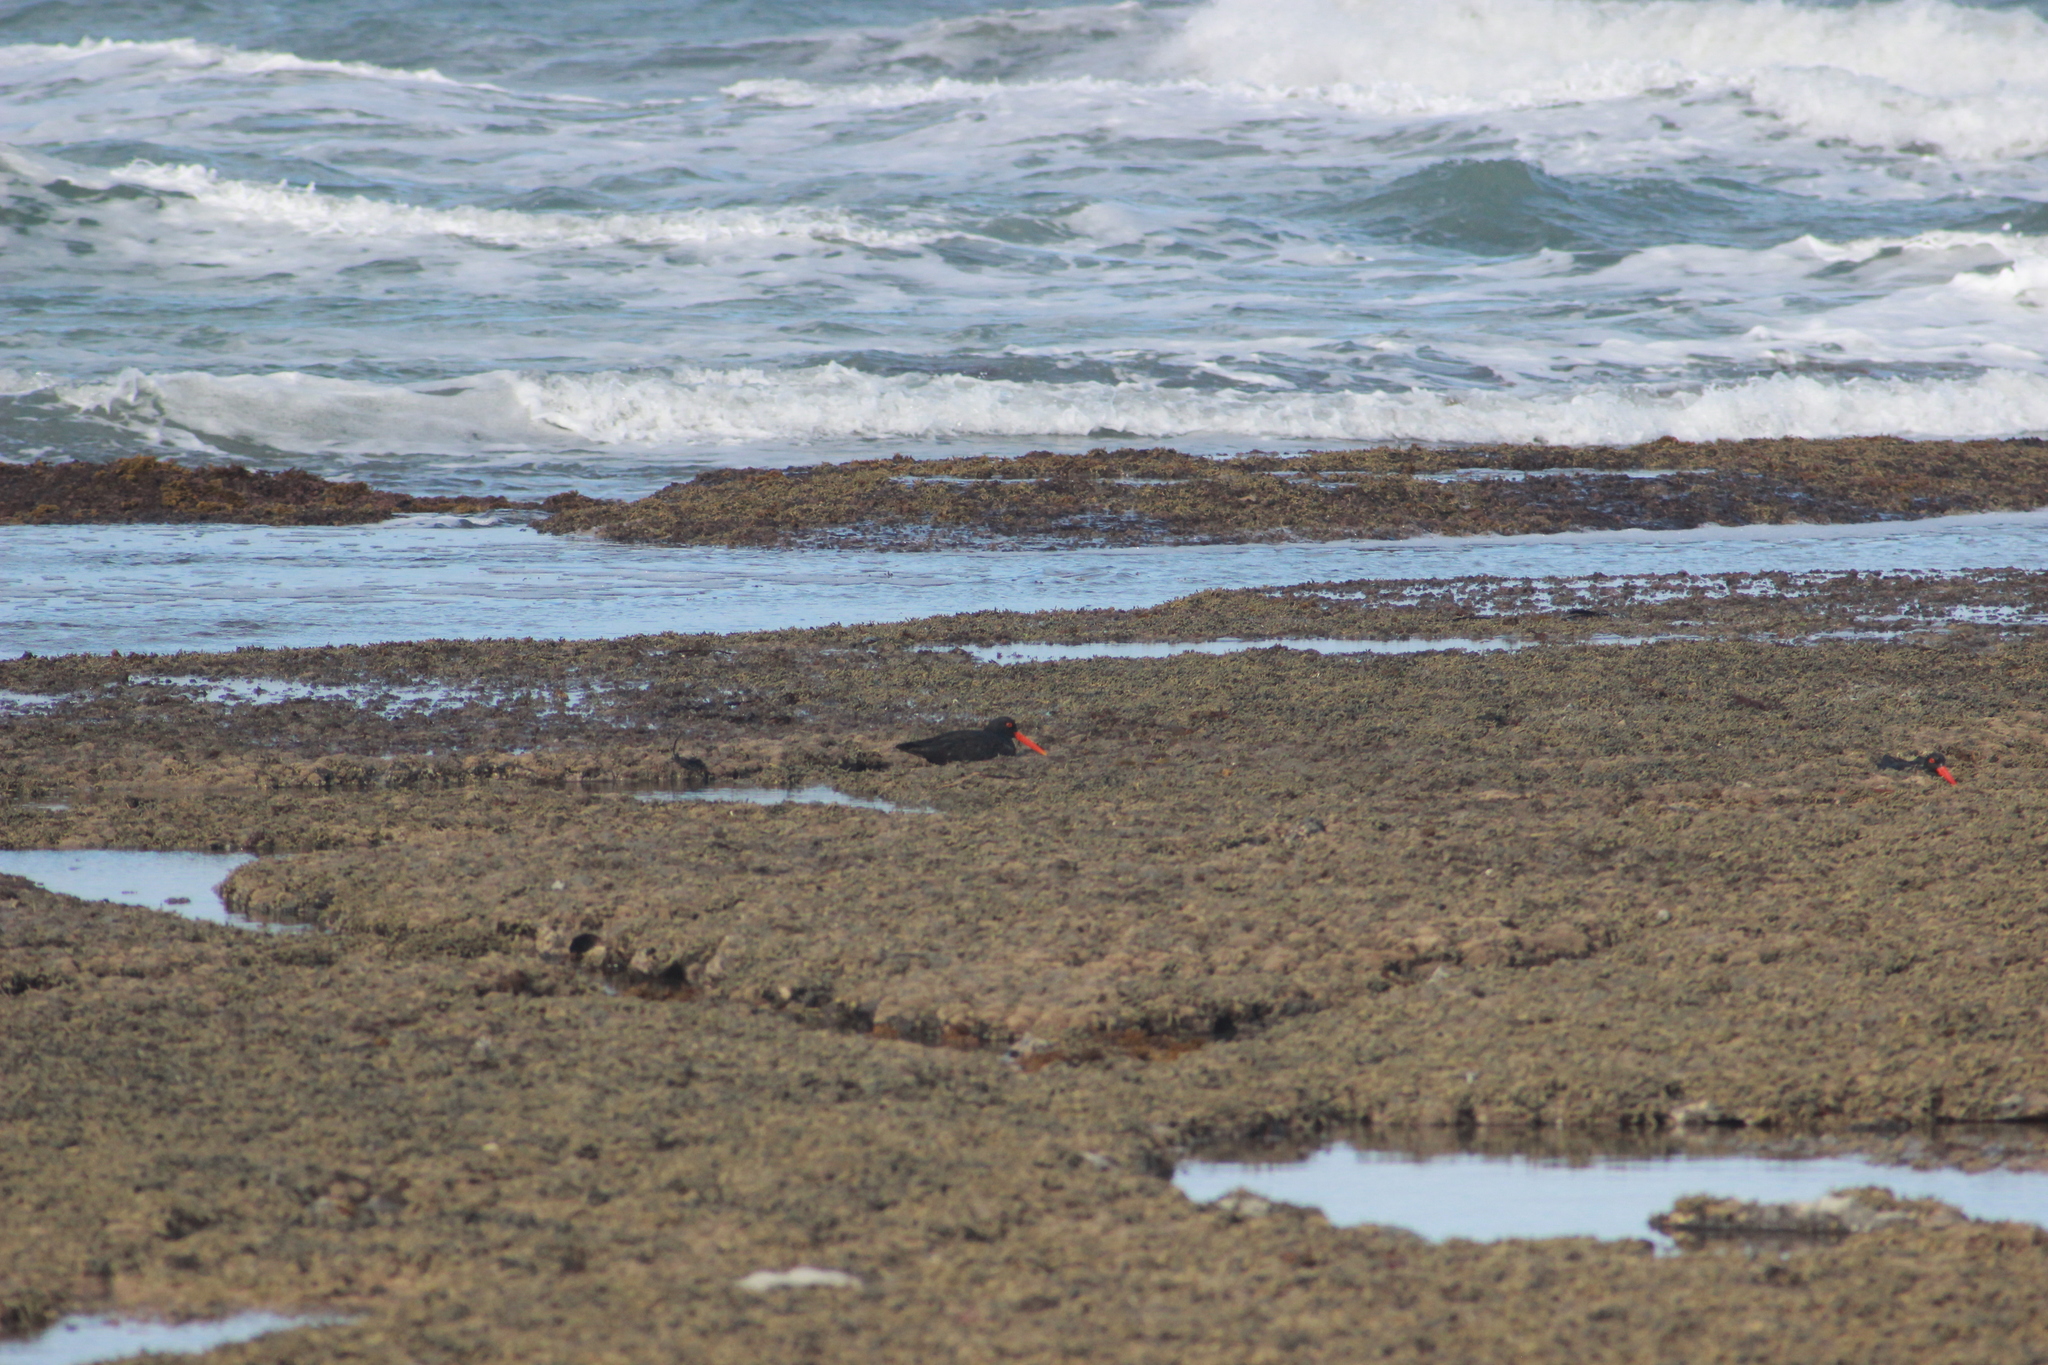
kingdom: Animalia
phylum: Chordata
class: Aves
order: Charadriiformes
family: Haematopodidae
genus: Haematopus
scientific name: Haematopus unicolor
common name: Variable oystercatcher
